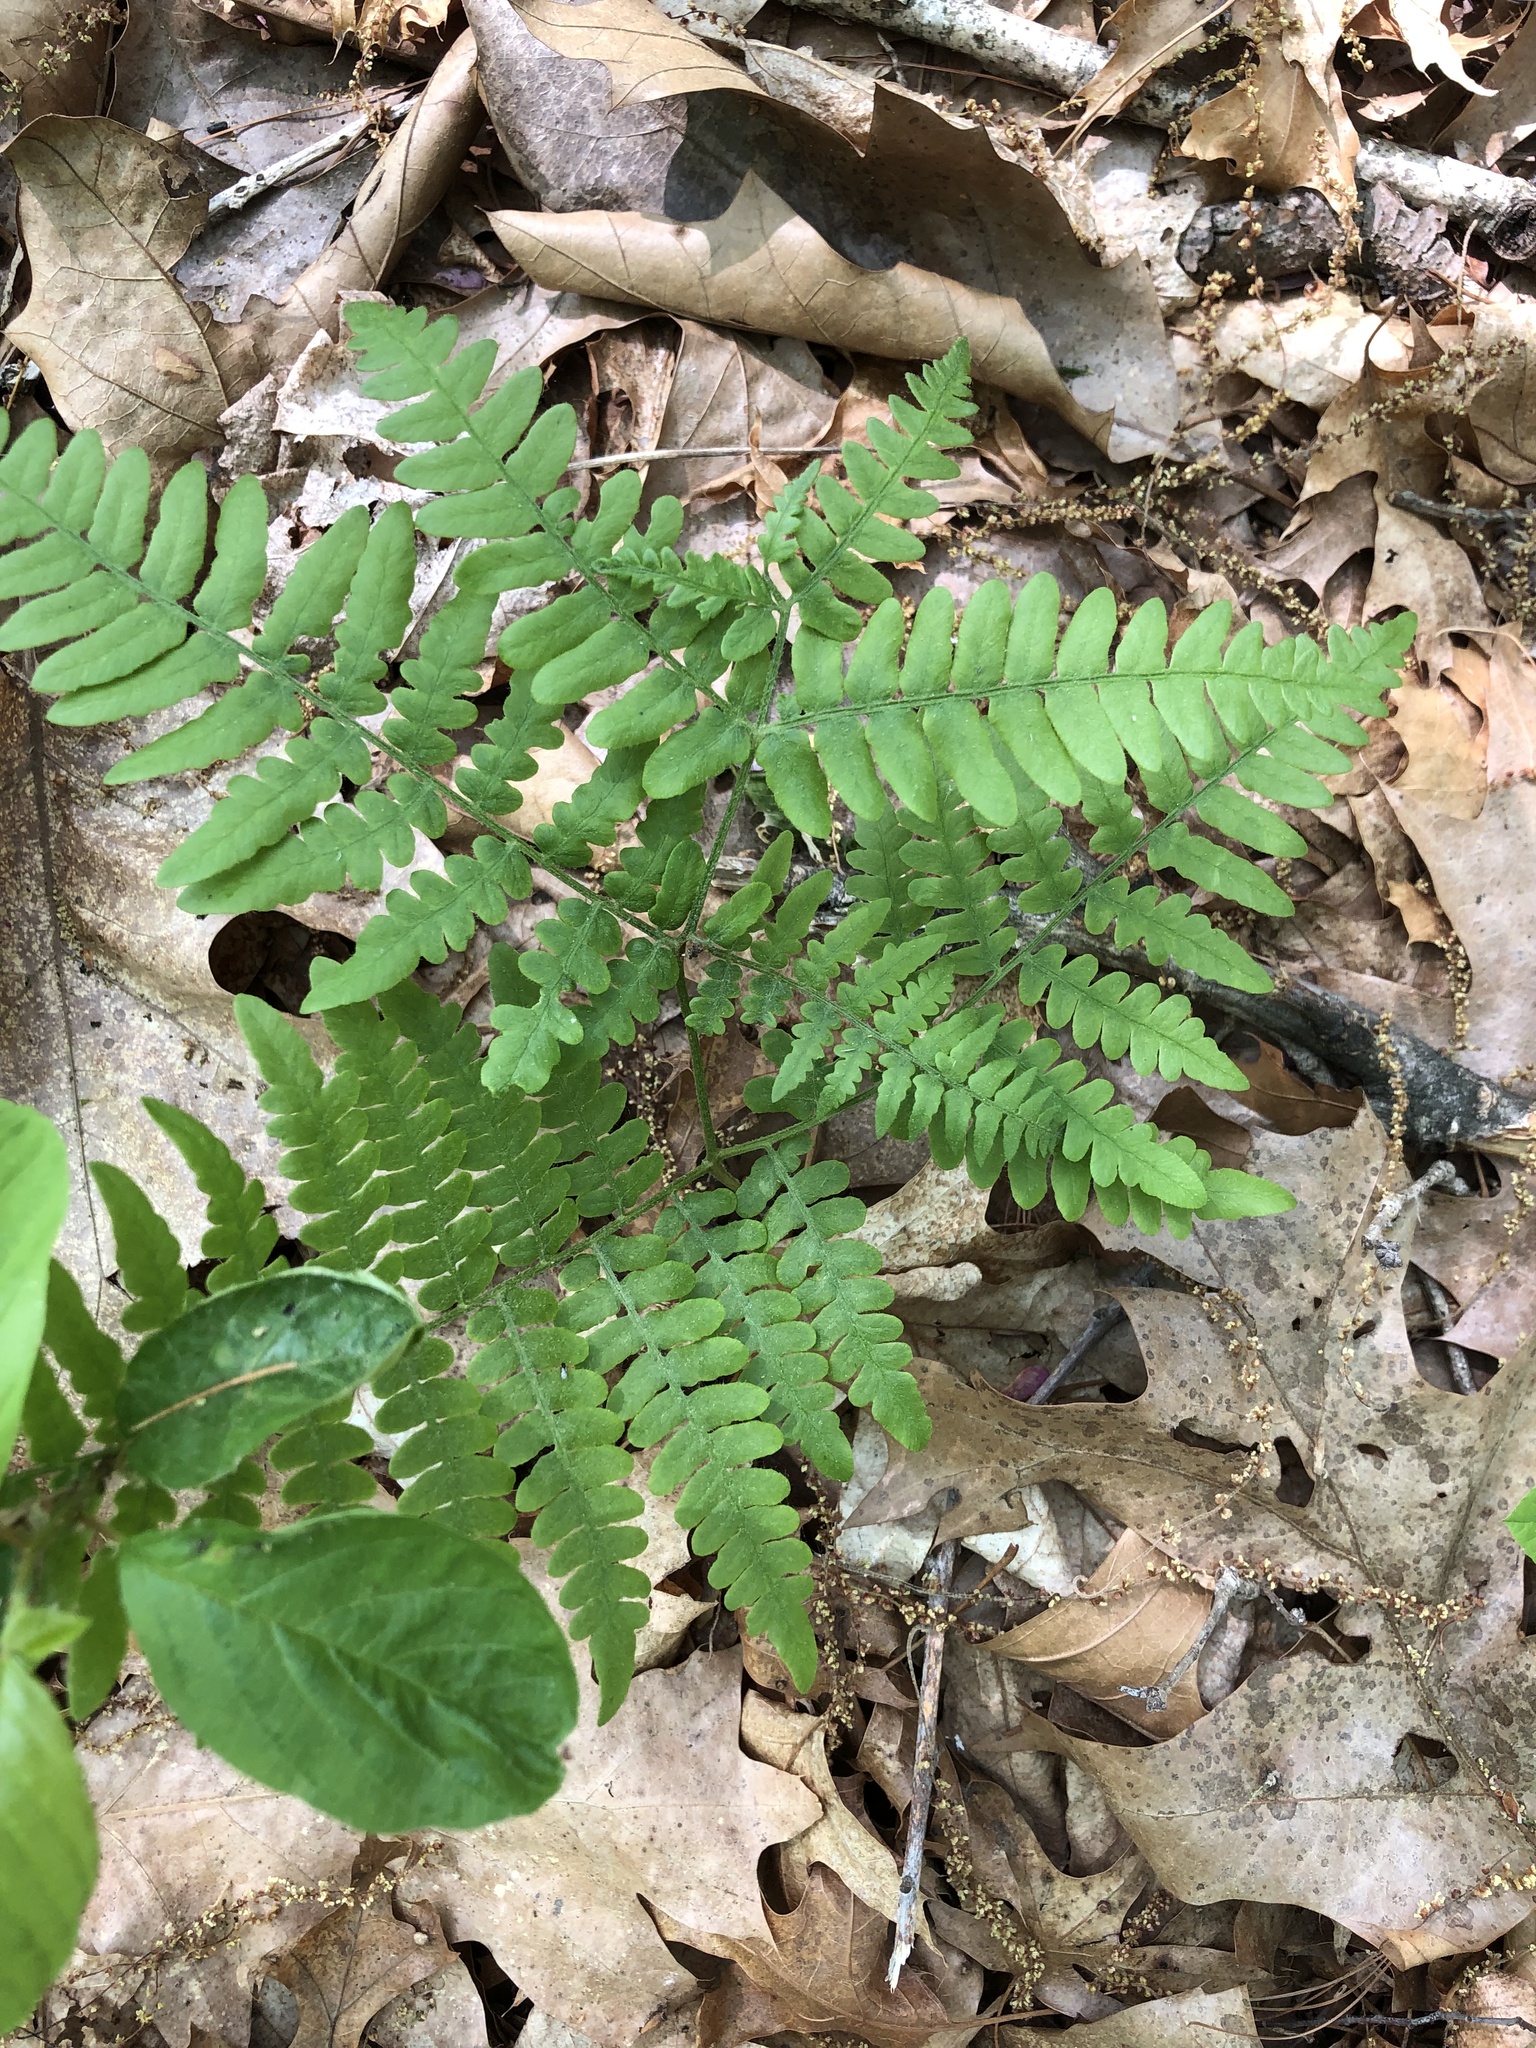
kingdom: Plantae
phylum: Tracheophyta
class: Polypodiopsida
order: Polypodiales
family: Dennstaedtiaceae
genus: Pteridium
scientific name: Pteridium aquilinum
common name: Bracken
